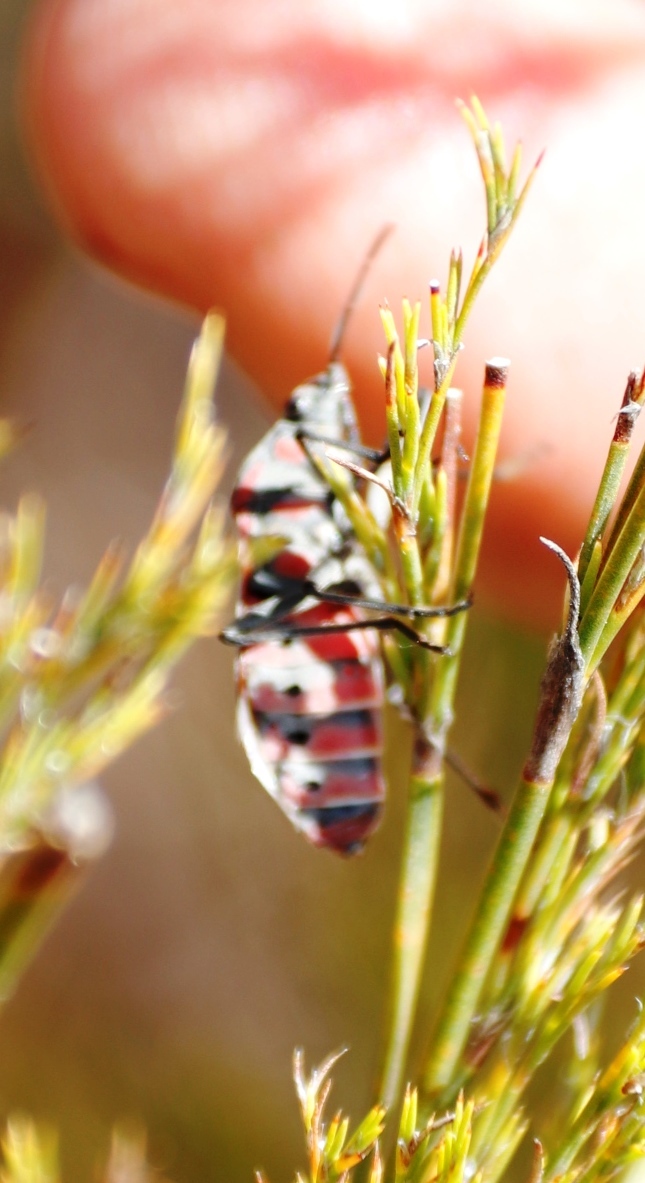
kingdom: Animalia
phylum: Arthropoda
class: Insecta
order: Hemiptera
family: Lygaeidae
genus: Spilostethus
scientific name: Spilostethus pandurus
